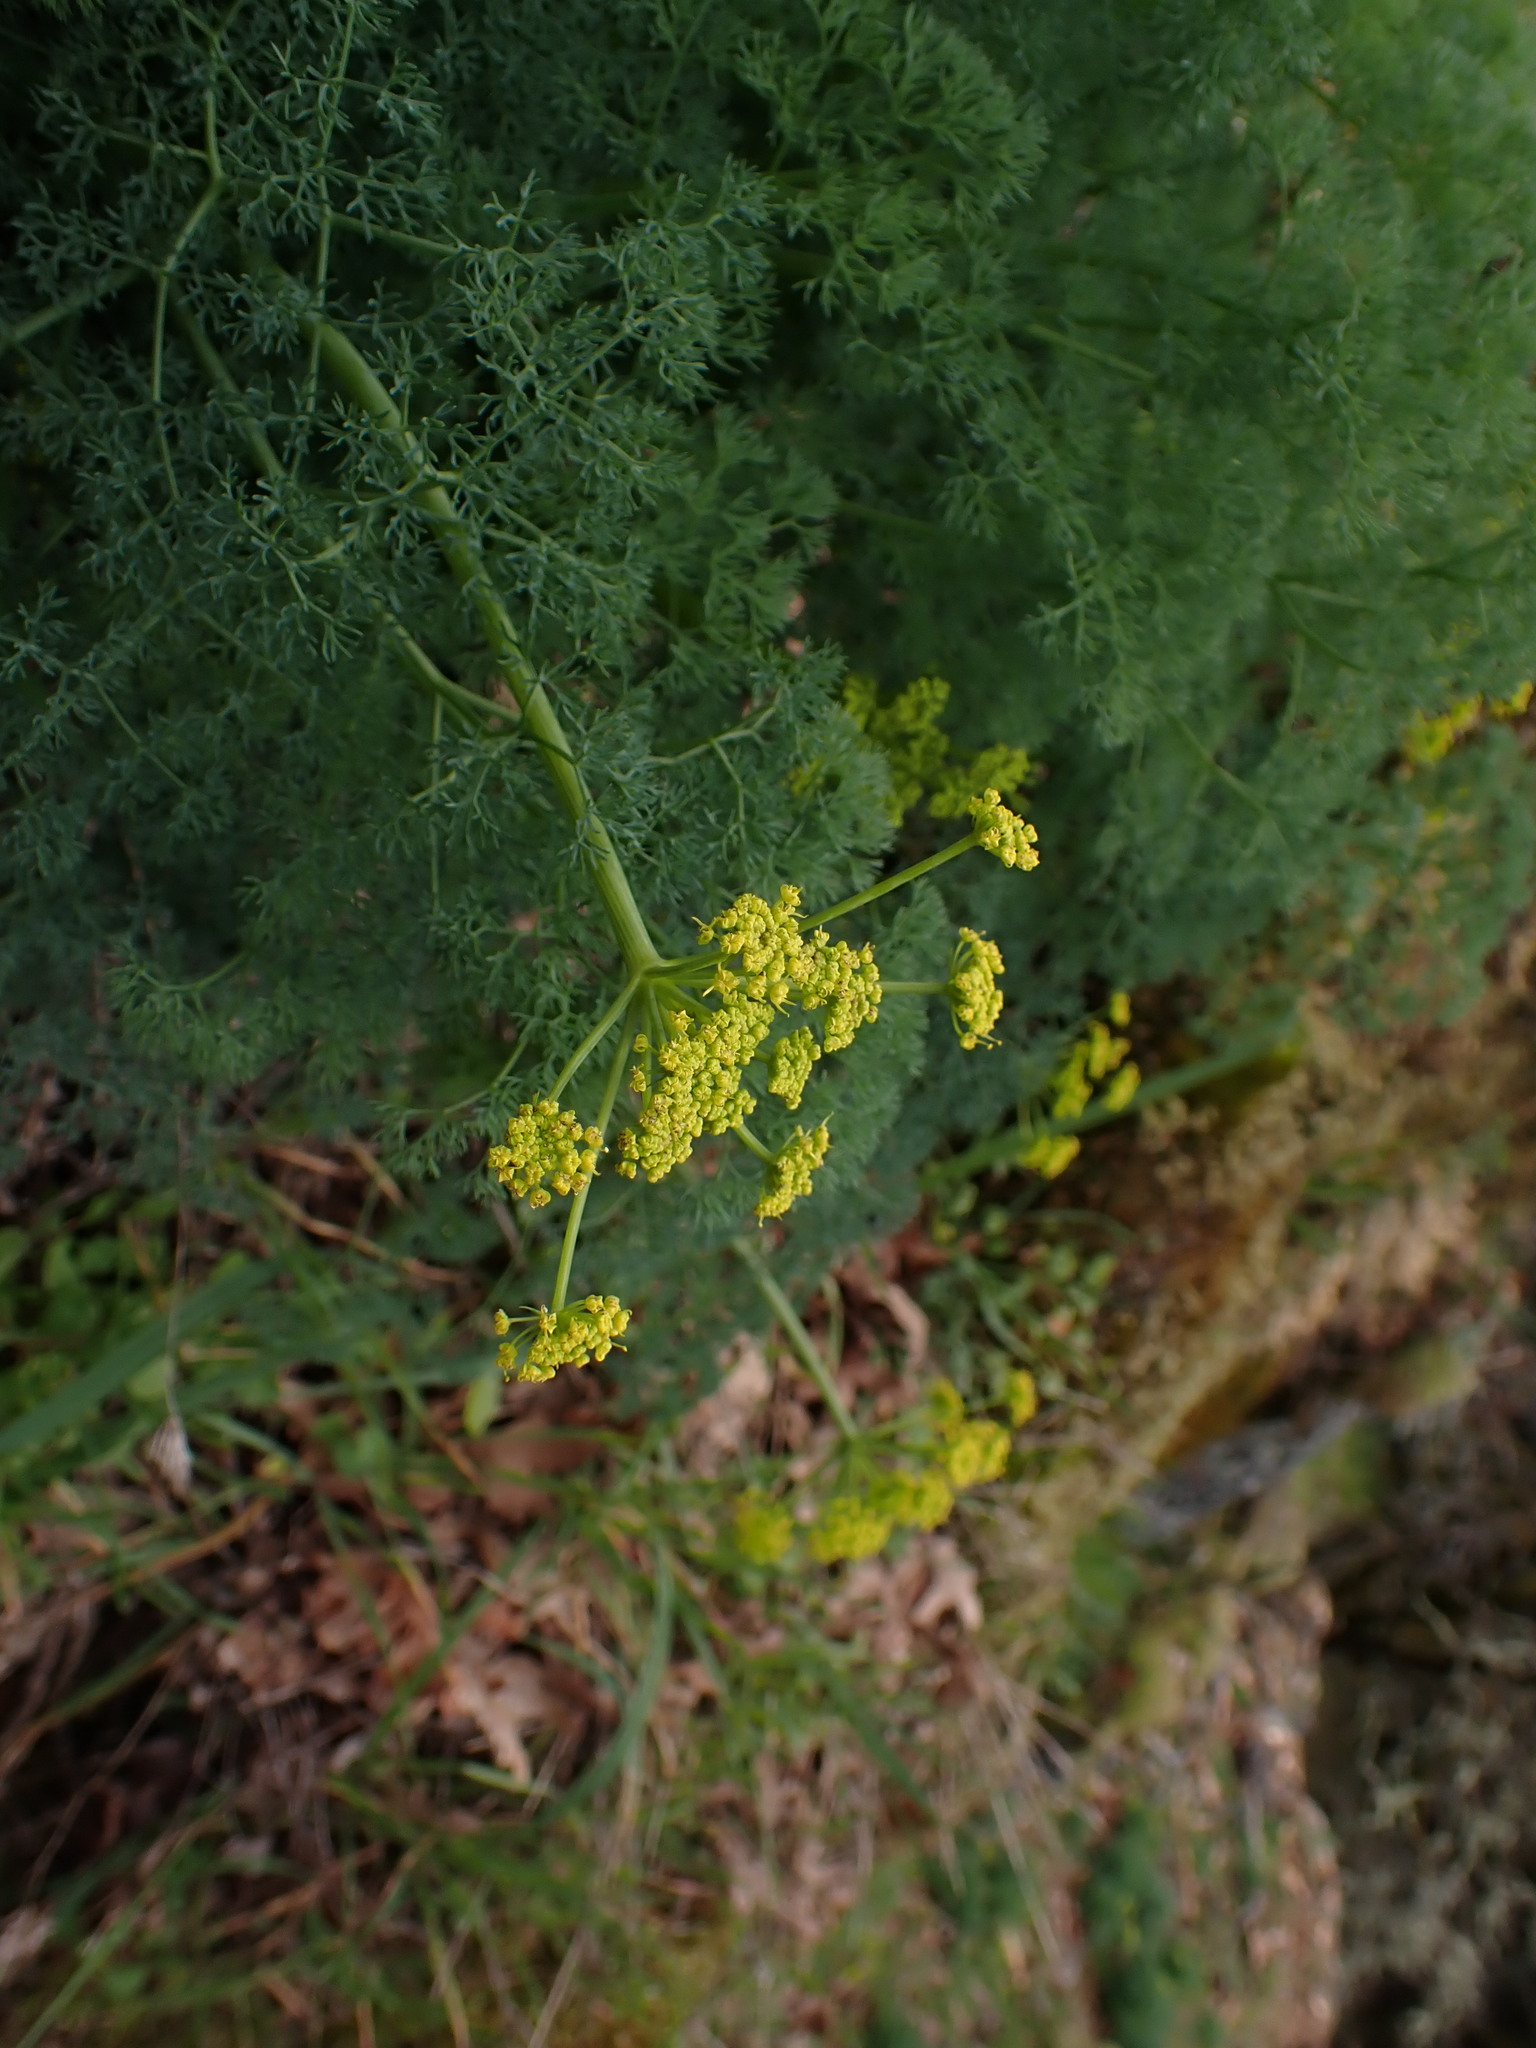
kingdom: Plantae
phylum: Tracheophyta
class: Magnoliopsida
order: Apiales
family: Apiaceae
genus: Lomatium
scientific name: Lomatium papilioniferum
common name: Butterfly lomatium
